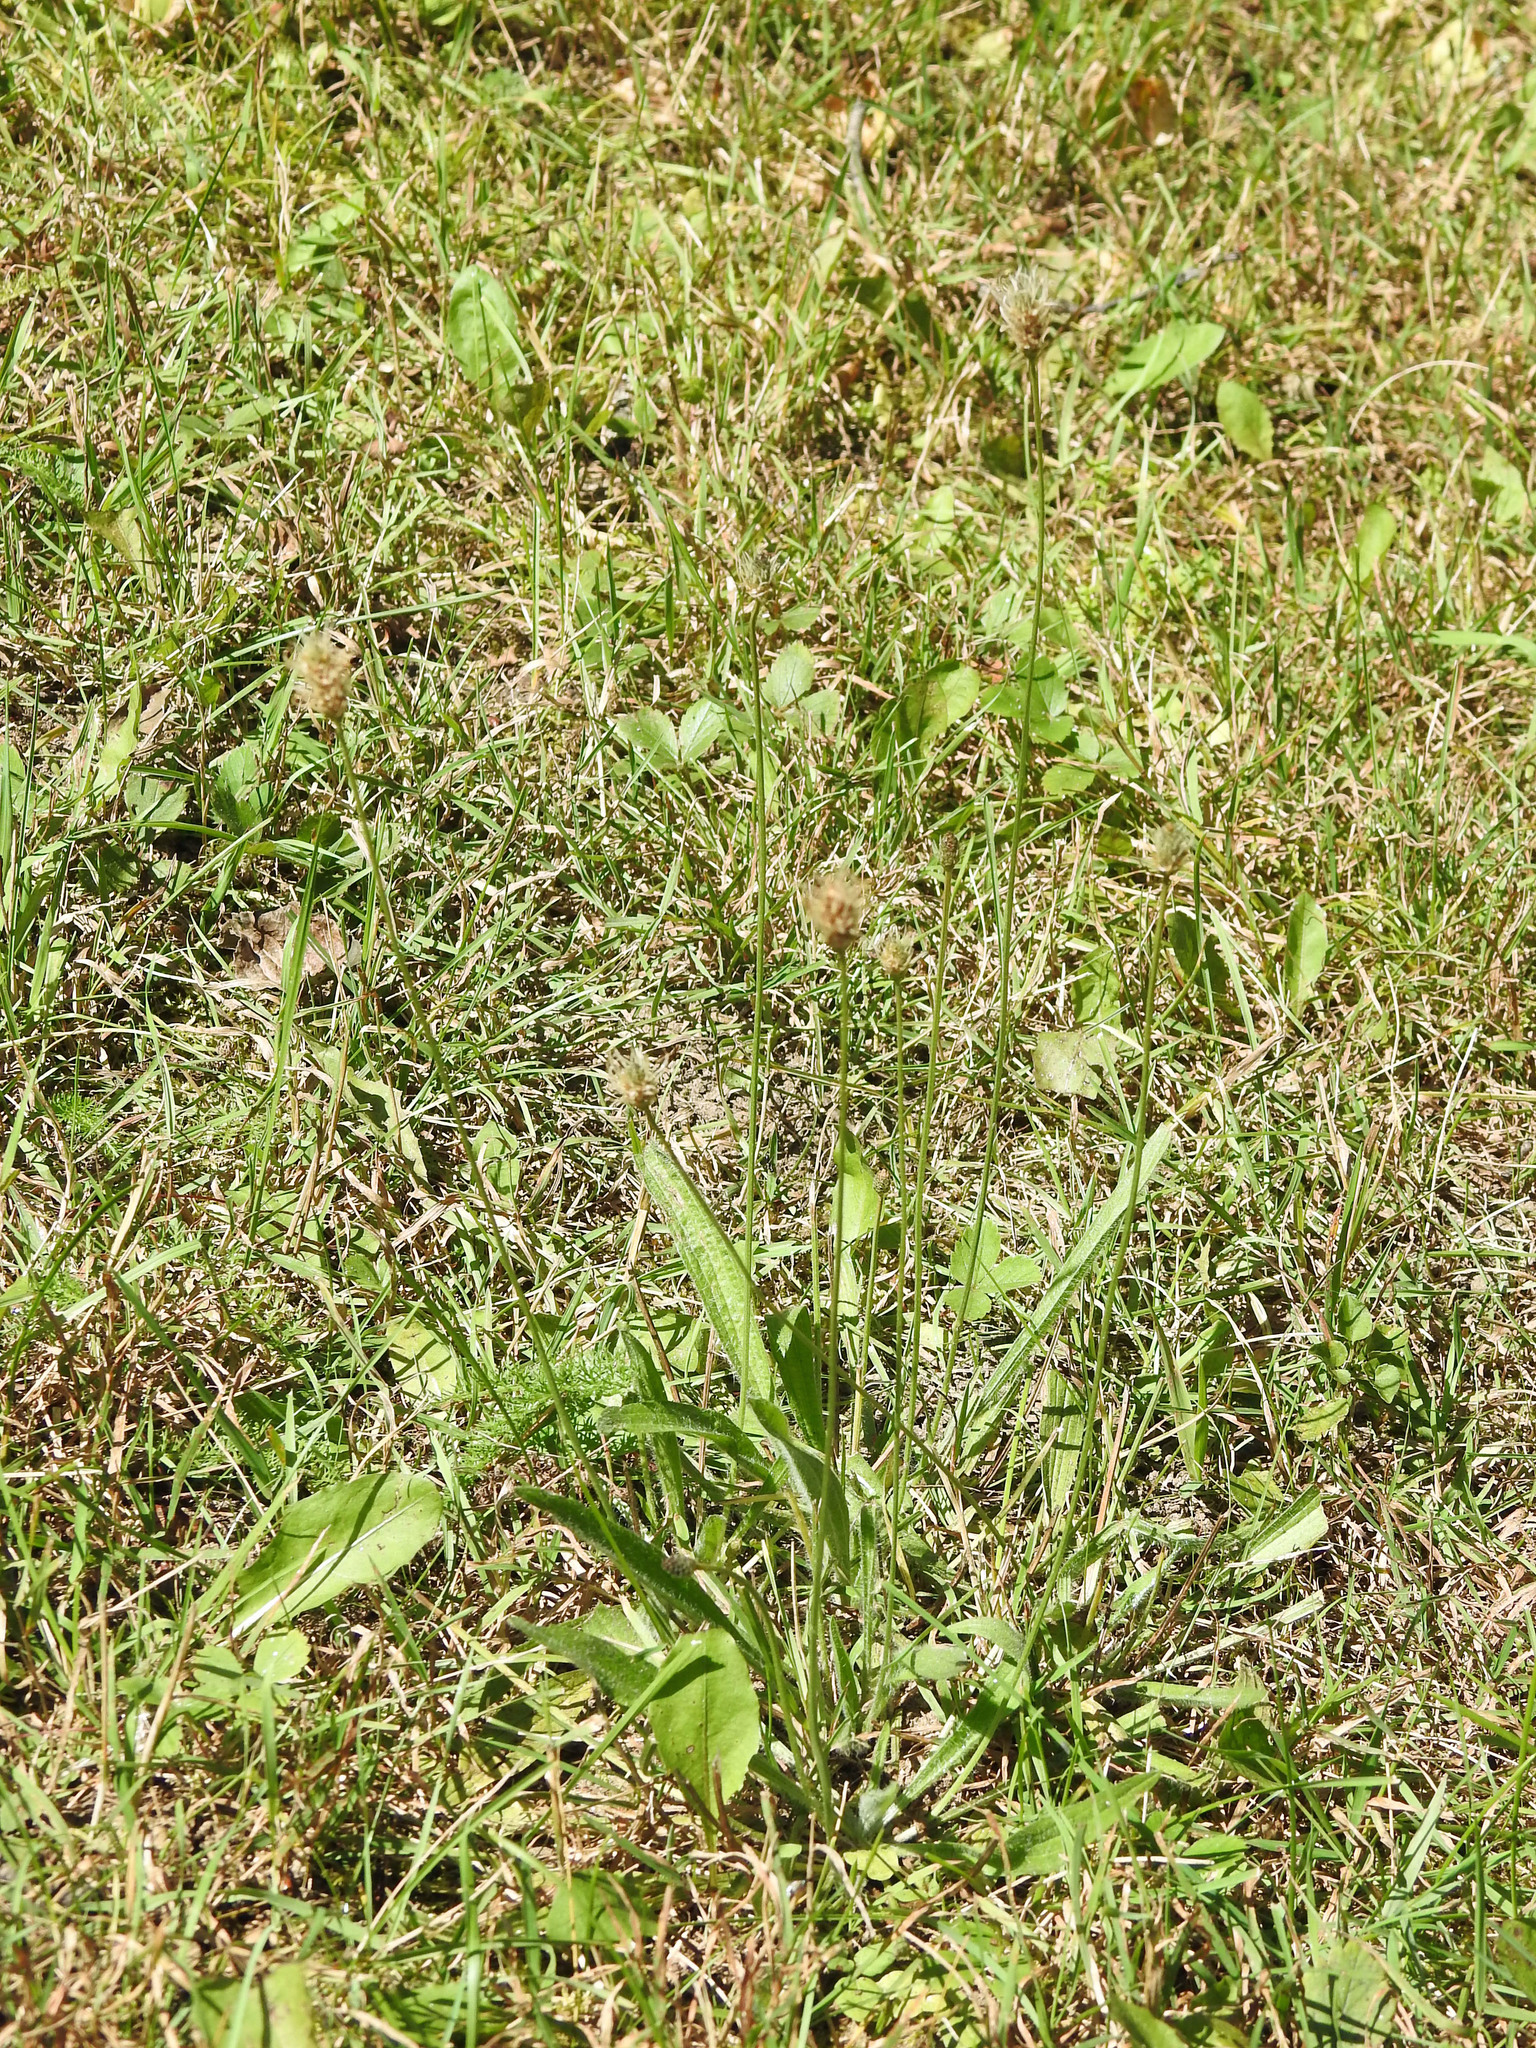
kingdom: Plantae
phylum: Tracheophyta
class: Magnoliopsida
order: Lamiales
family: Plantaginaceae
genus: Plantago
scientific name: Plantago lanceolata
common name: Ribwort plantain
